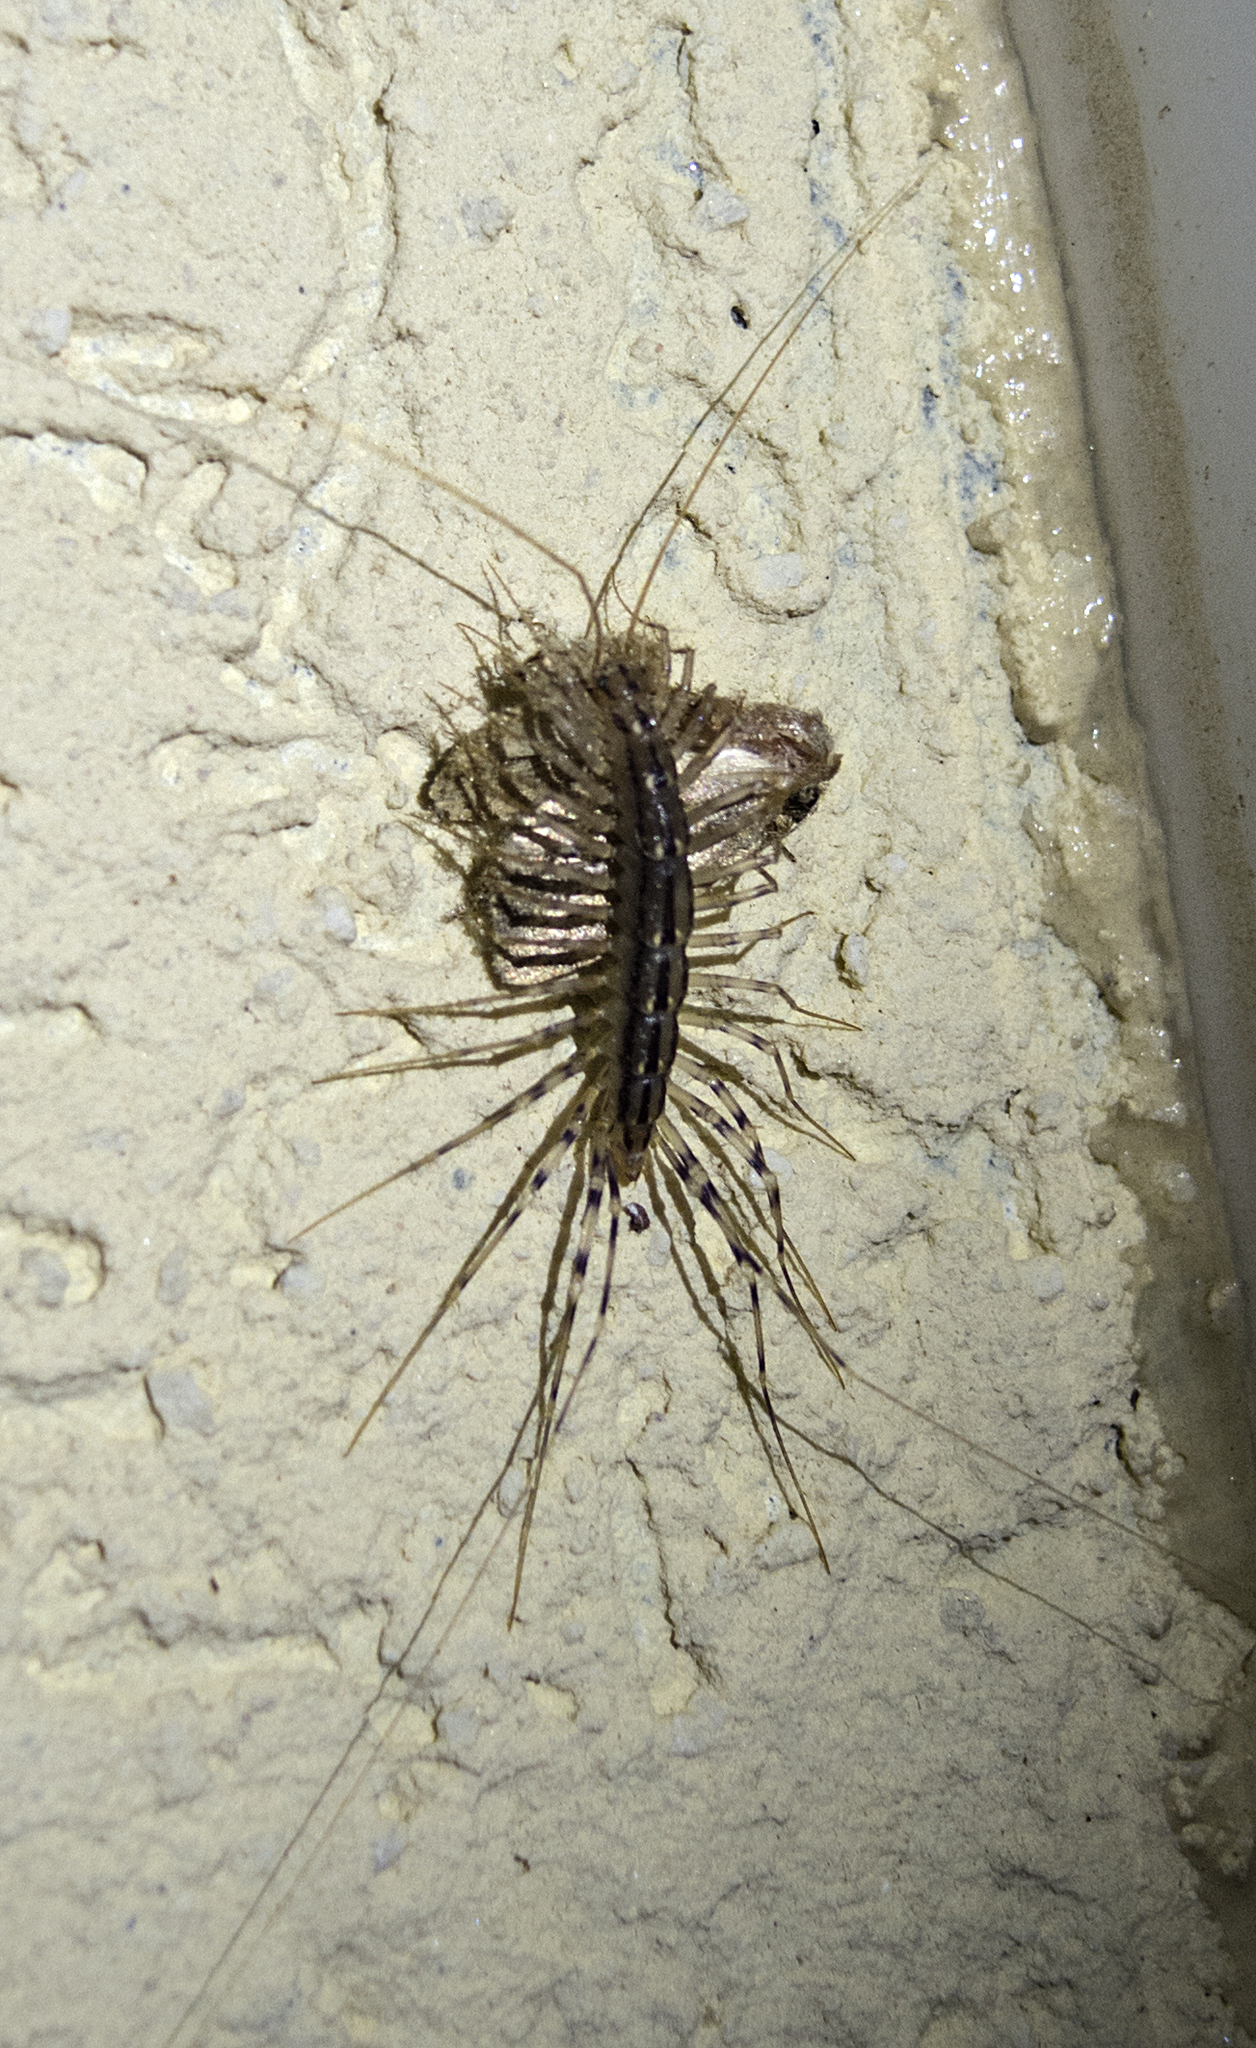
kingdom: Animalia
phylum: Arthropoda
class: Chilopoda
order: Scutigeromorpha
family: Scutigeridae
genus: Scutigera
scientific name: Scutigera coleoptrata
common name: House centipede
